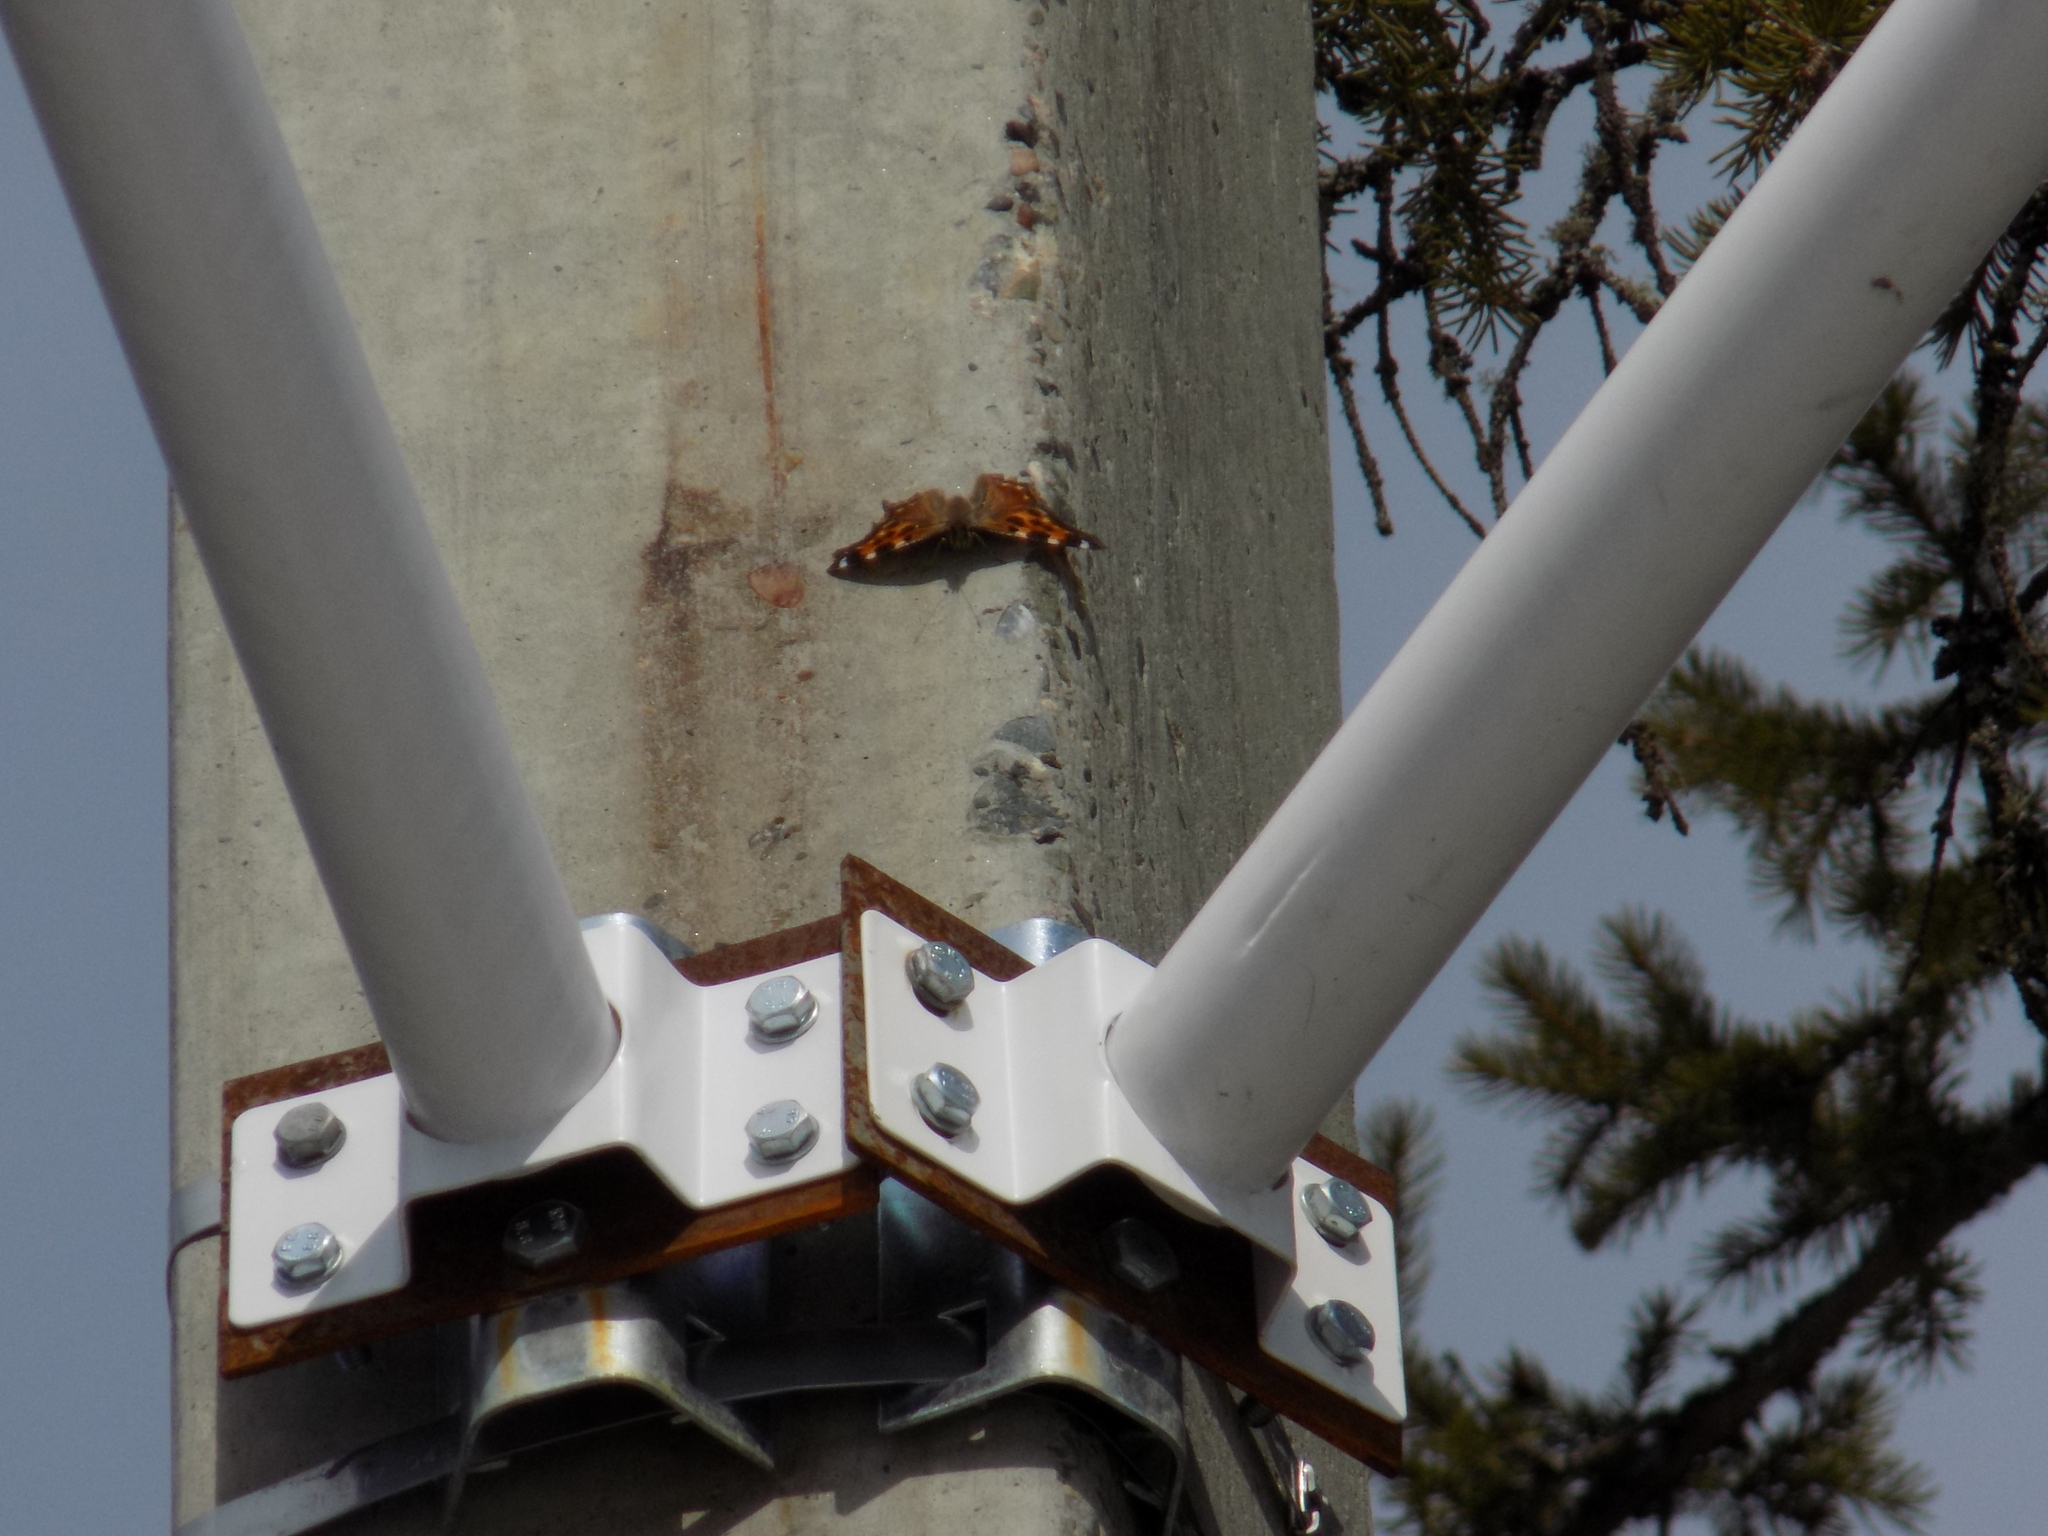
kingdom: Animalia
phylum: Arthropoda
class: Insecta
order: Lepidoptera
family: Nymphalidae
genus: Polygonia
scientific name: Polygonia vaualbum
